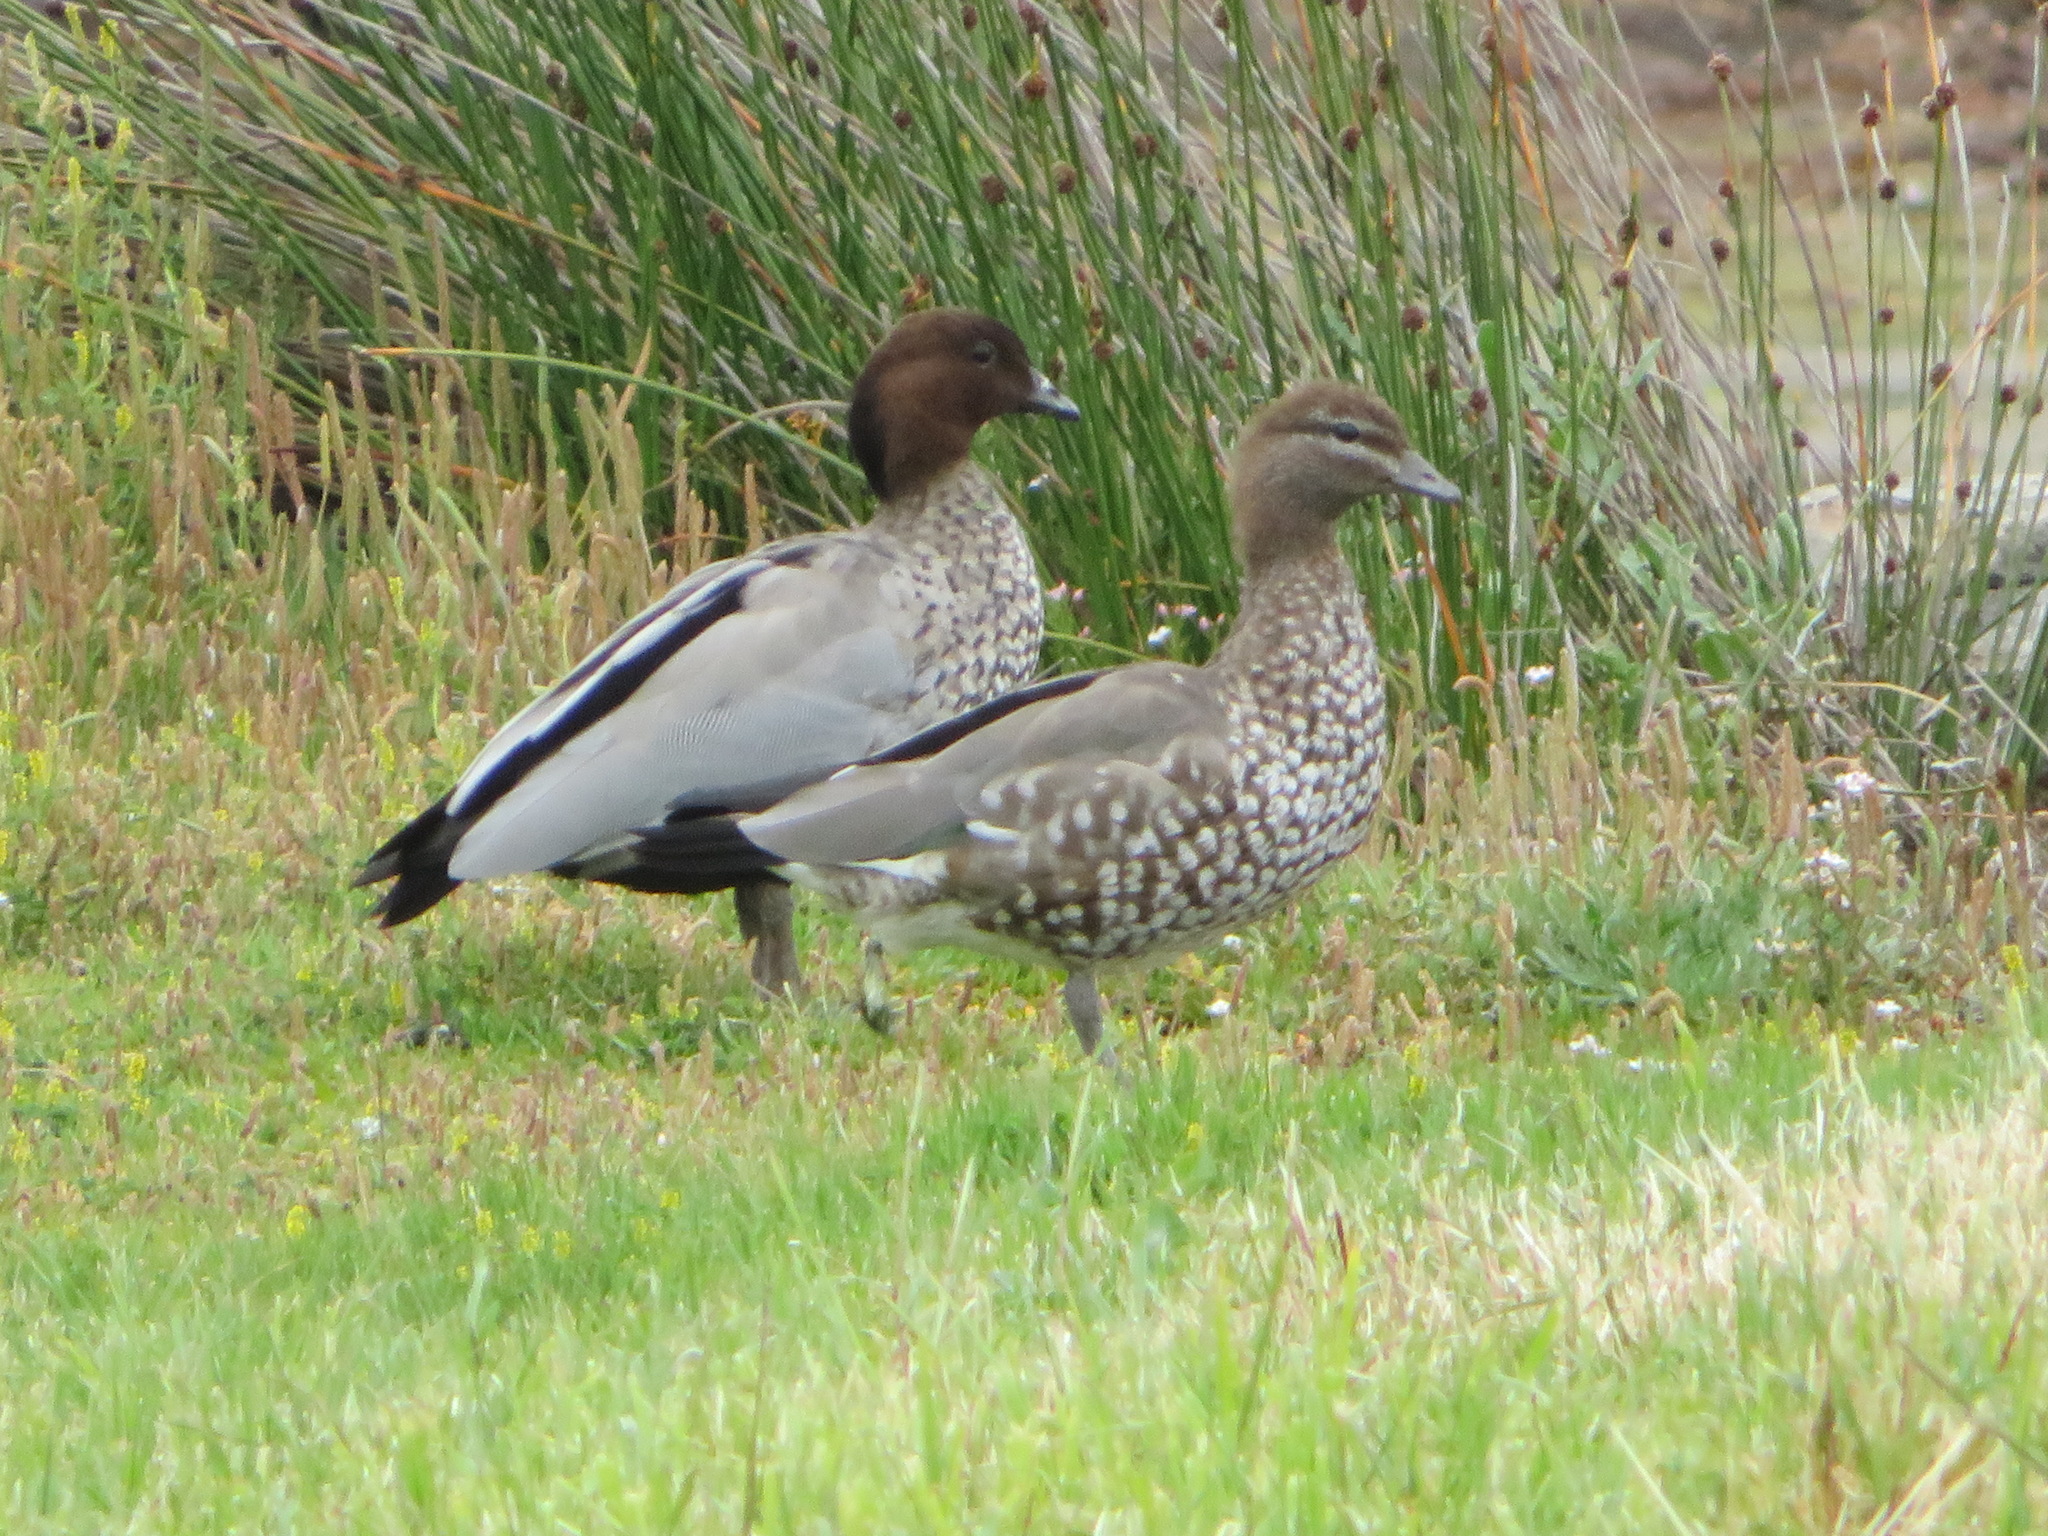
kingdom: Animalia
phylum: Chordata
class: Aves
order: Anseriformes
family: Anatidae
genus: Chenonetta
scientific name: Chenonetta jubata
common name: Maned duck
